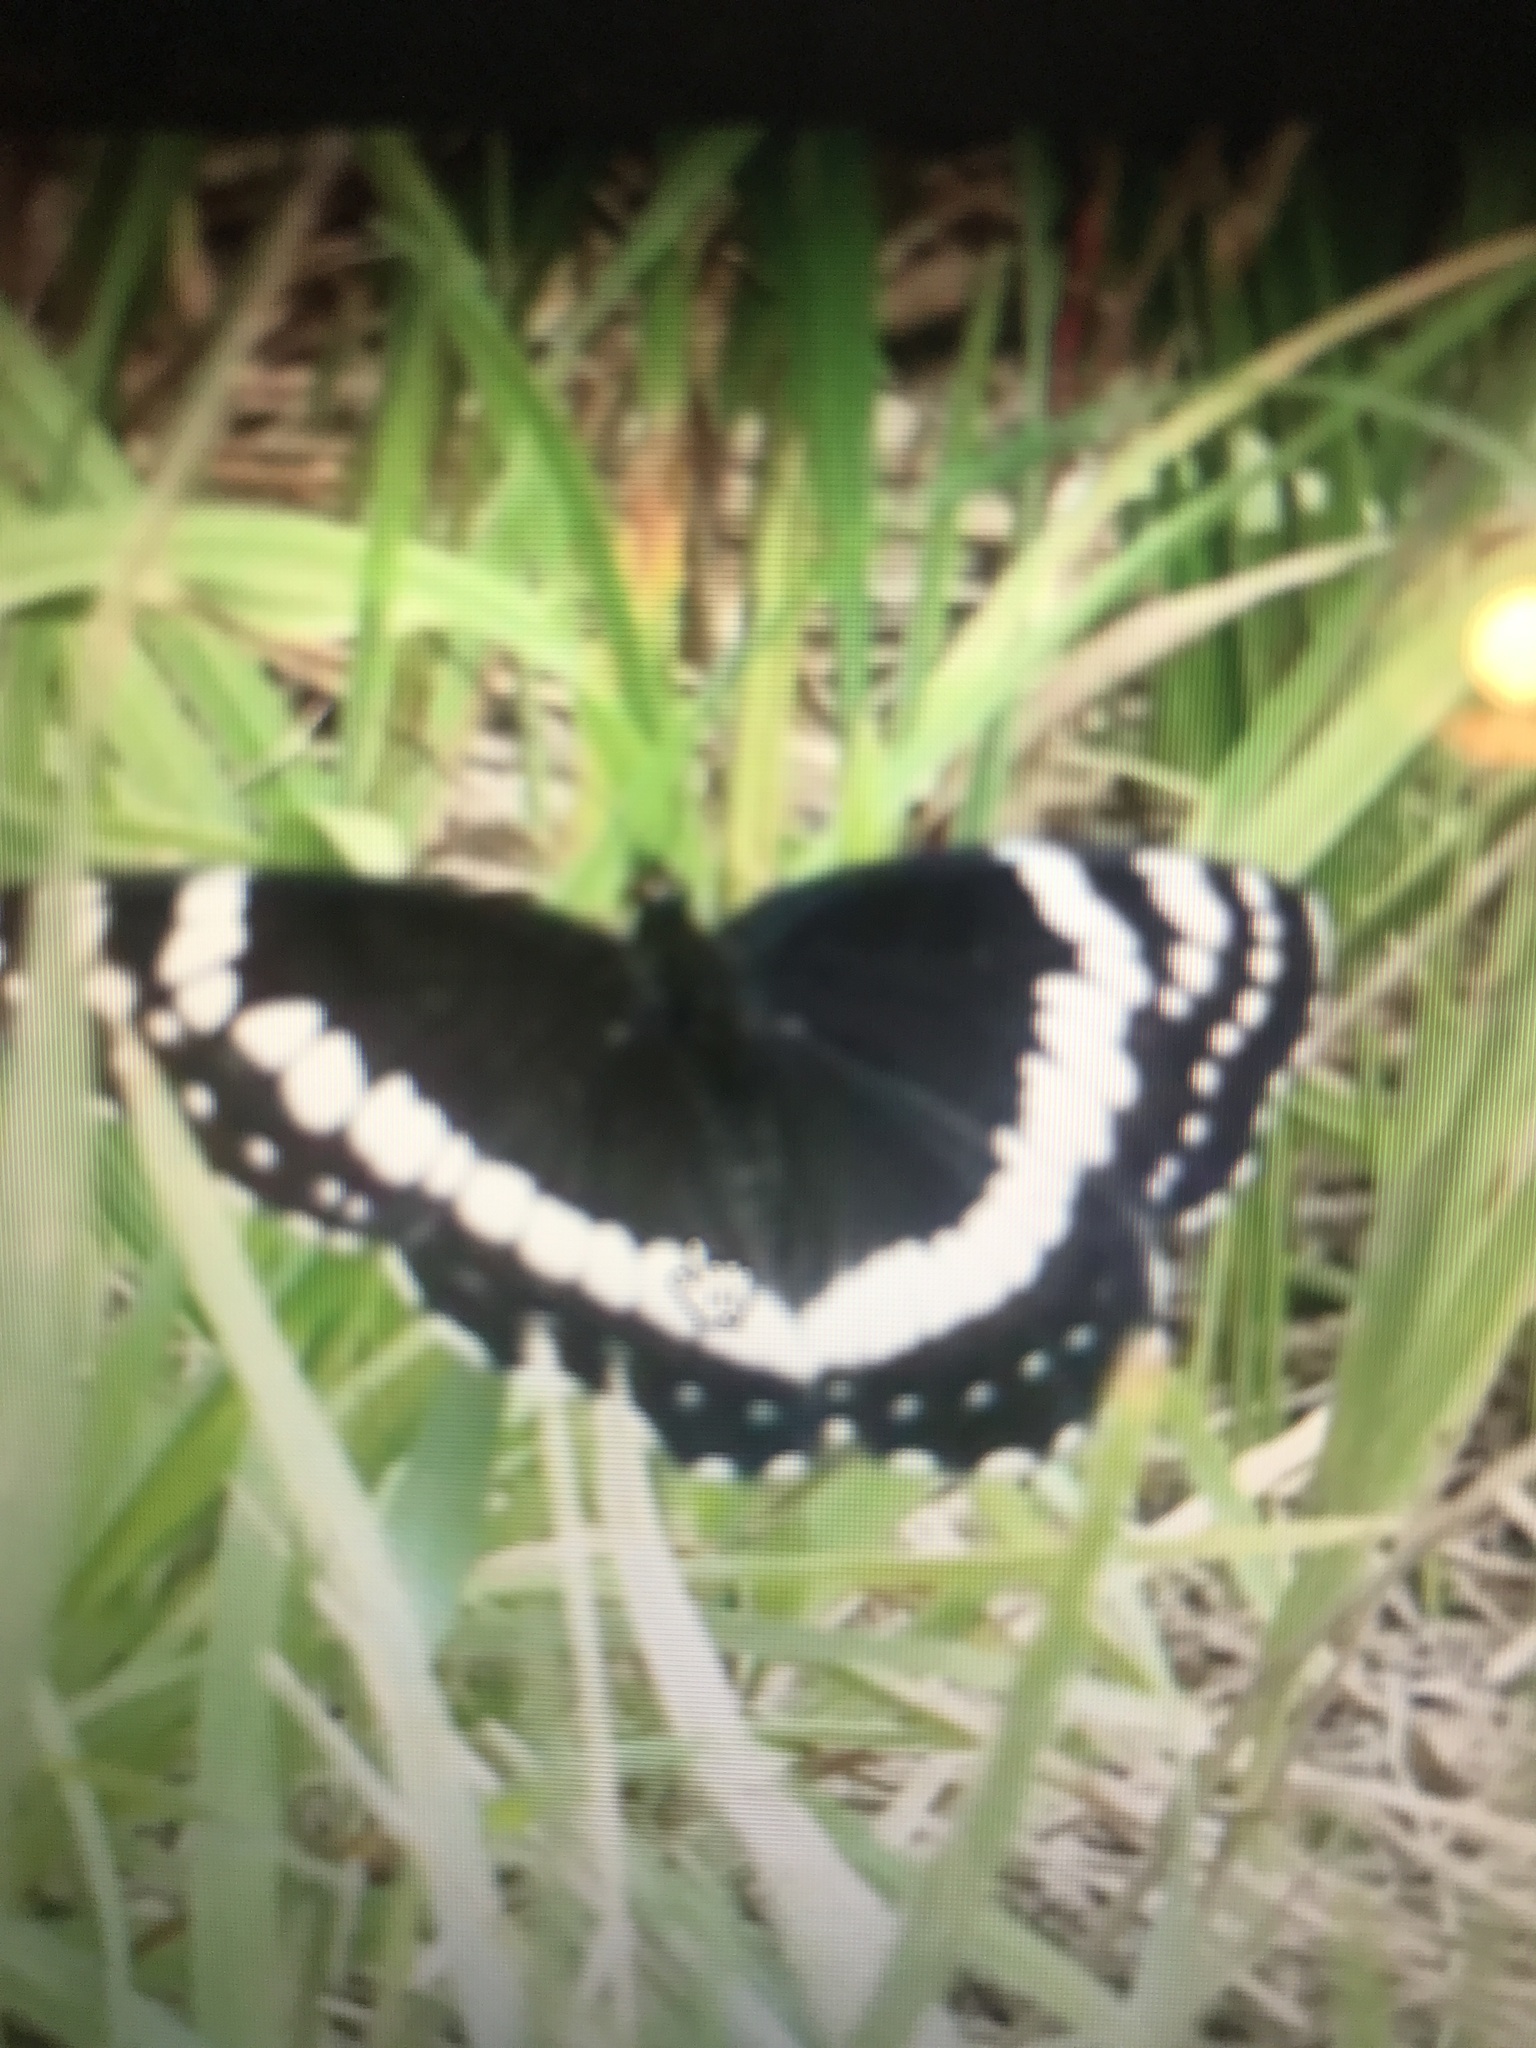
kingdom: Animalia
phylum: Arthropoda
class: Insecta
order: Lepidoptera
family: Nymphalidae
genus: Limenitis
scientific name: Limenitis weidemeyerii
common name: Weidemeyer's admiral
